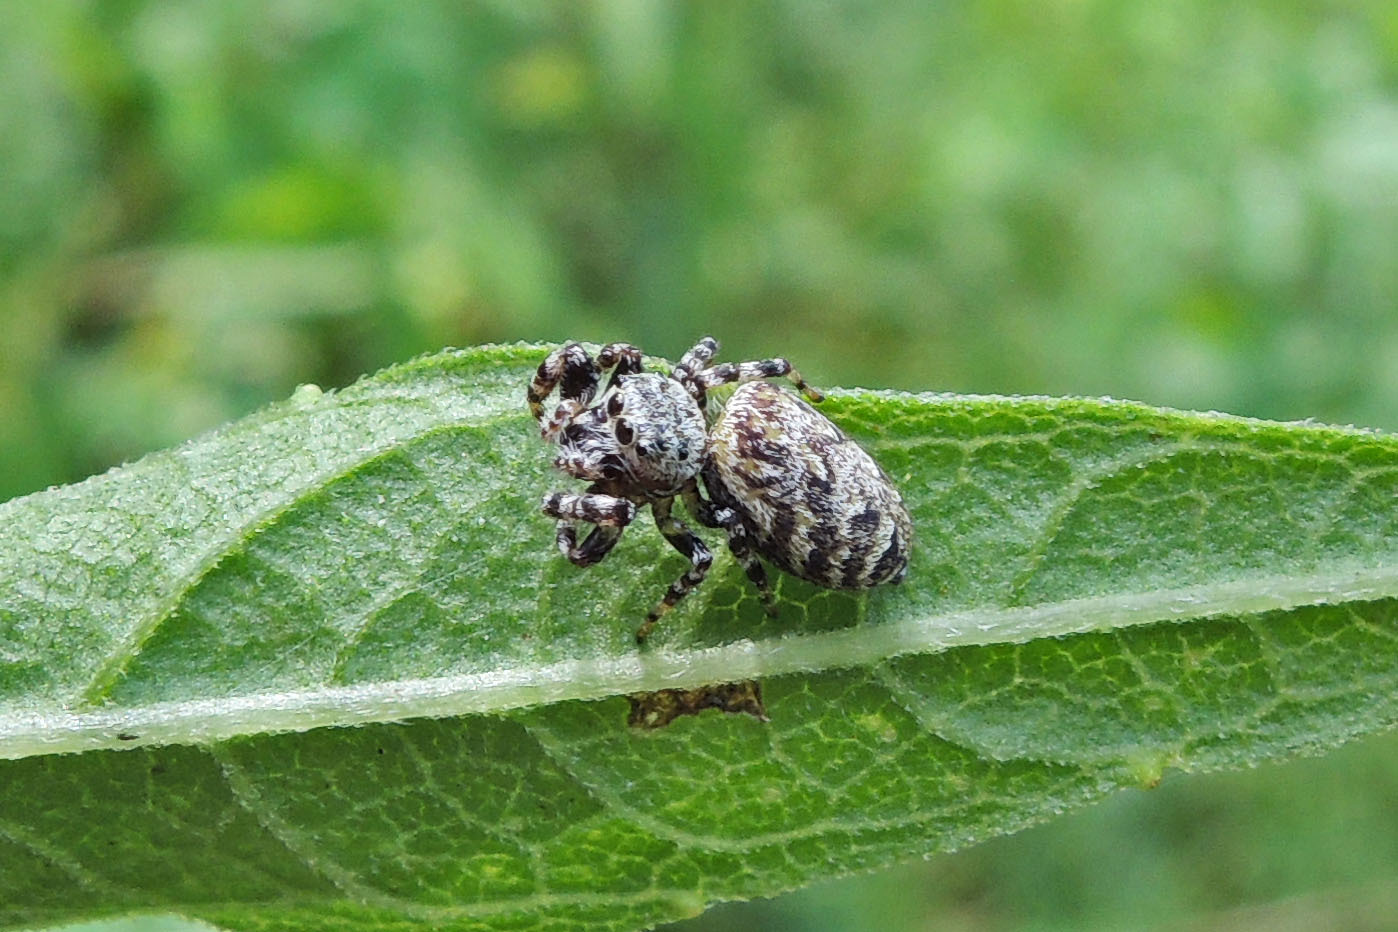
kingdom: Animalia
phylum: Arthropoda
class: Arachnida
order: Araneae
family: Salticidae
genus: Pelegrina
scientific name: Pelegrina galathea
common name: Jumping spiders
